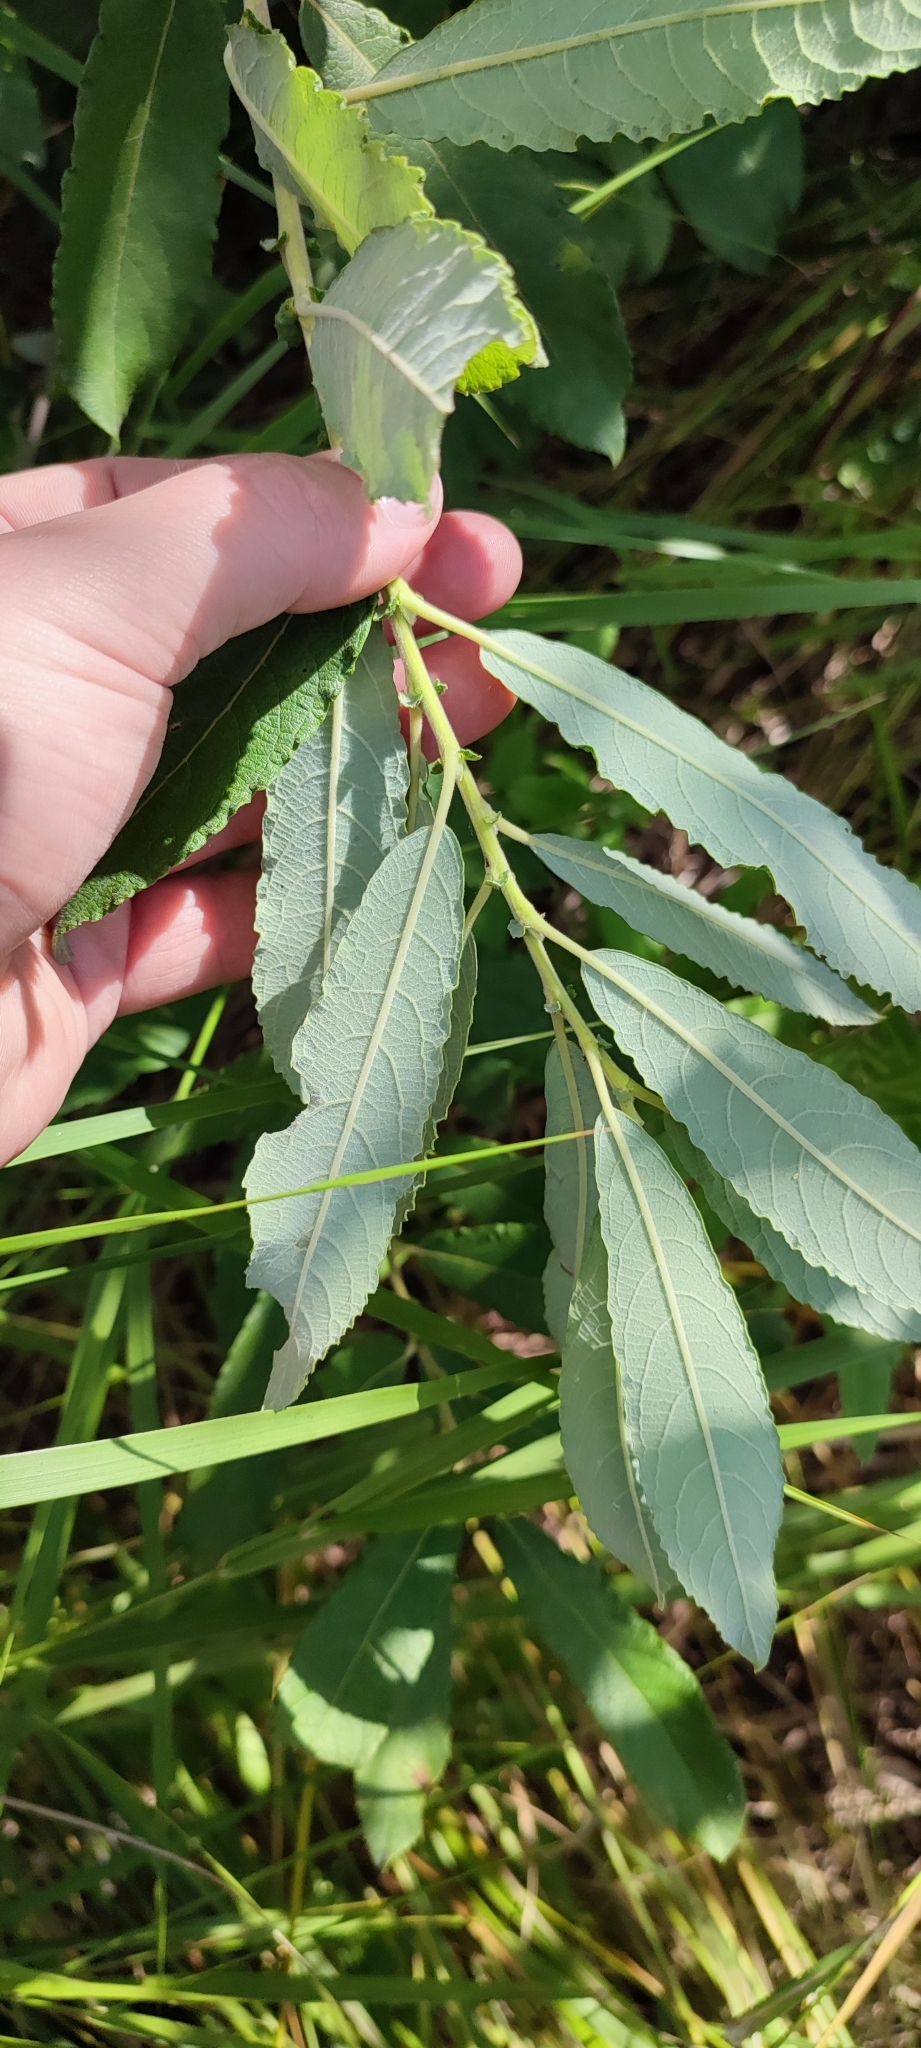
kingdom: Plantae
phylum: Tracheophyta
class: Magnoliopsida
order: Malpighiales
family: Salicaceae
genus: Salix
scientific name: Salix cinerea
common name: Common sallow
